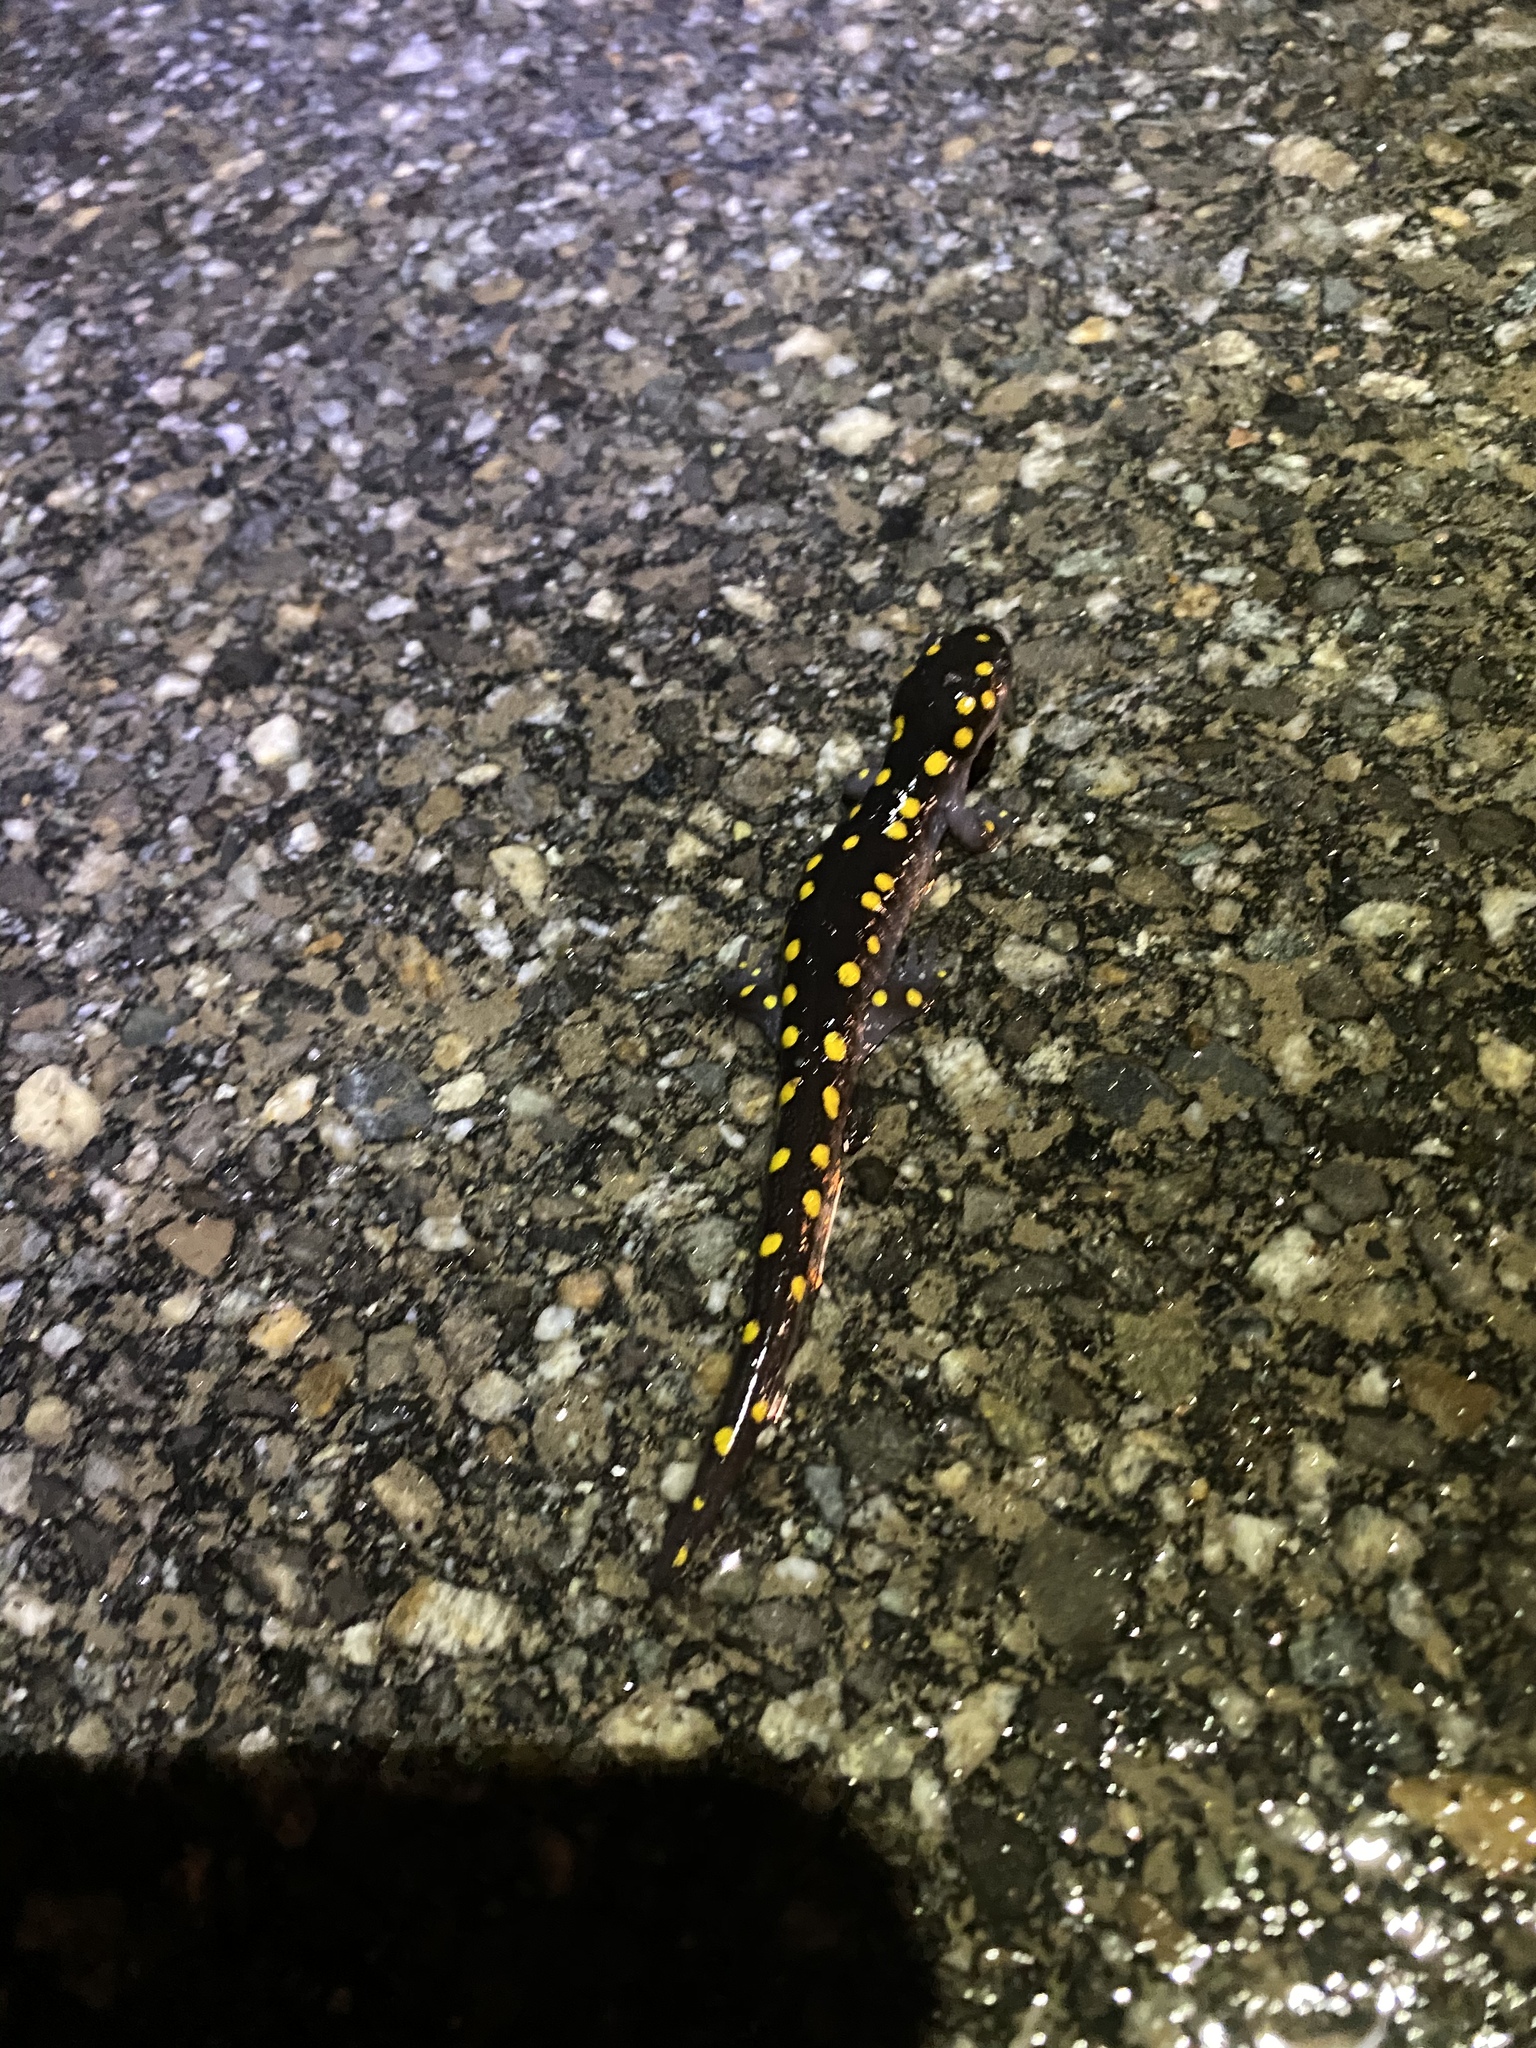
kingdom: Animalia
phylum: Chordata
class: Amphibia
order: Caudata
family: Ambystomatidae
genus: Ambystoma
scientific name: Ambystoma maculatum
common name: Spotted salamander
